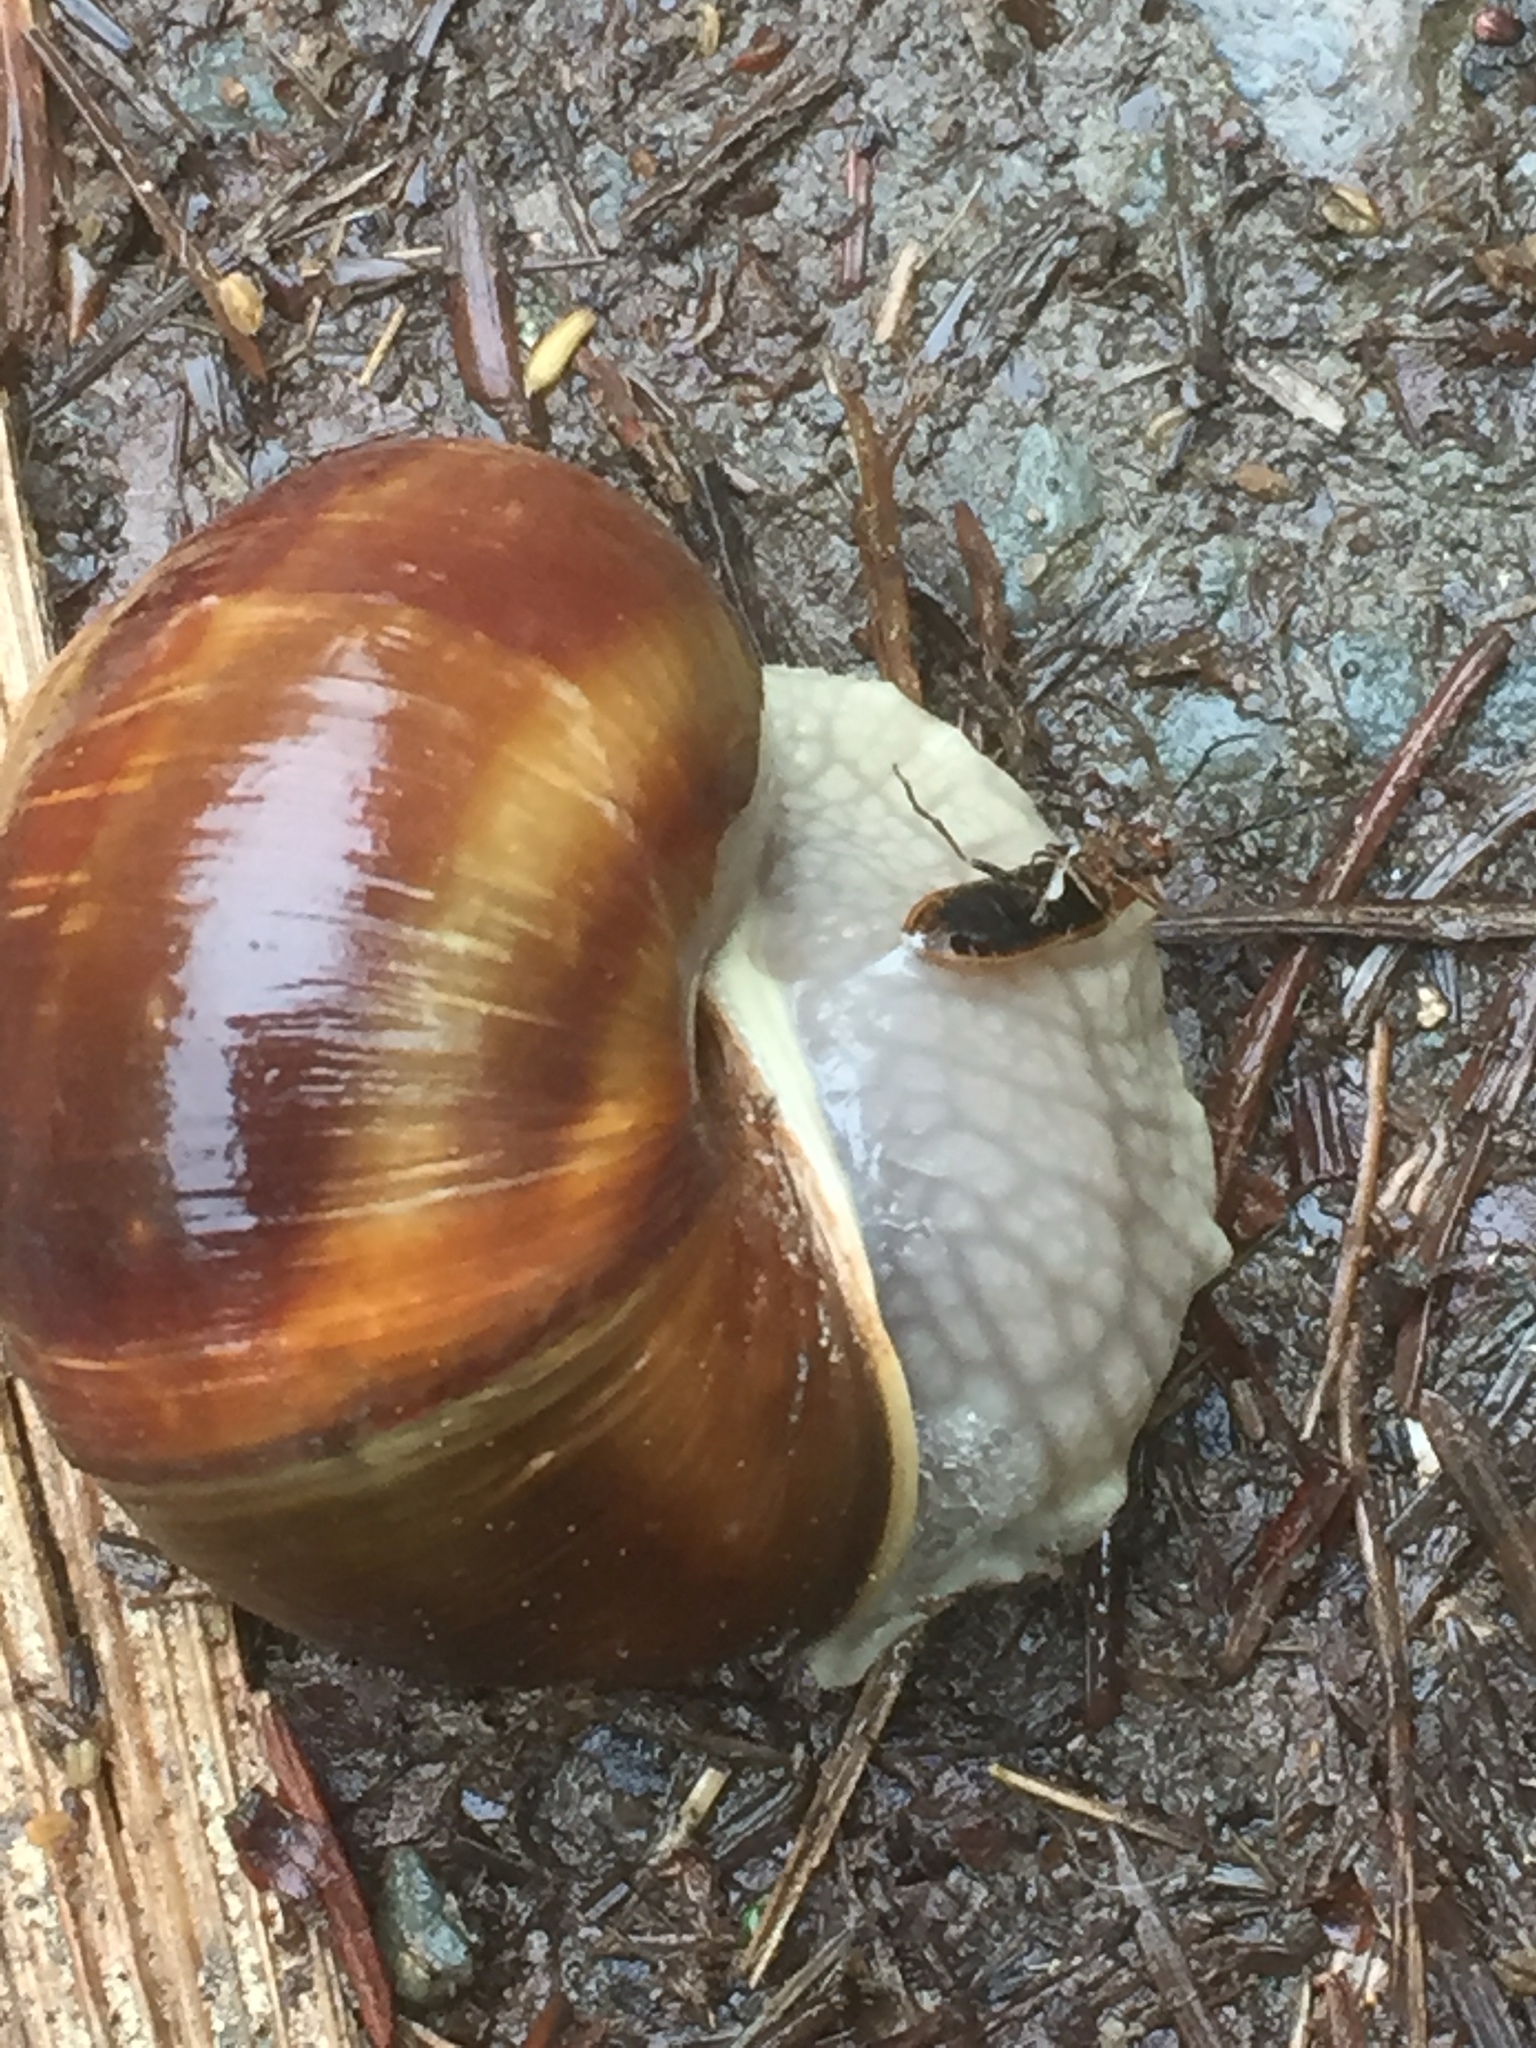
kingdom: Animalia
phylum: Mollusca
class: Gastropoda
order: Stylommatophora
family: Helicidae
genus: Helix
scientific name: Helix pomatia
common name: Roman snail
